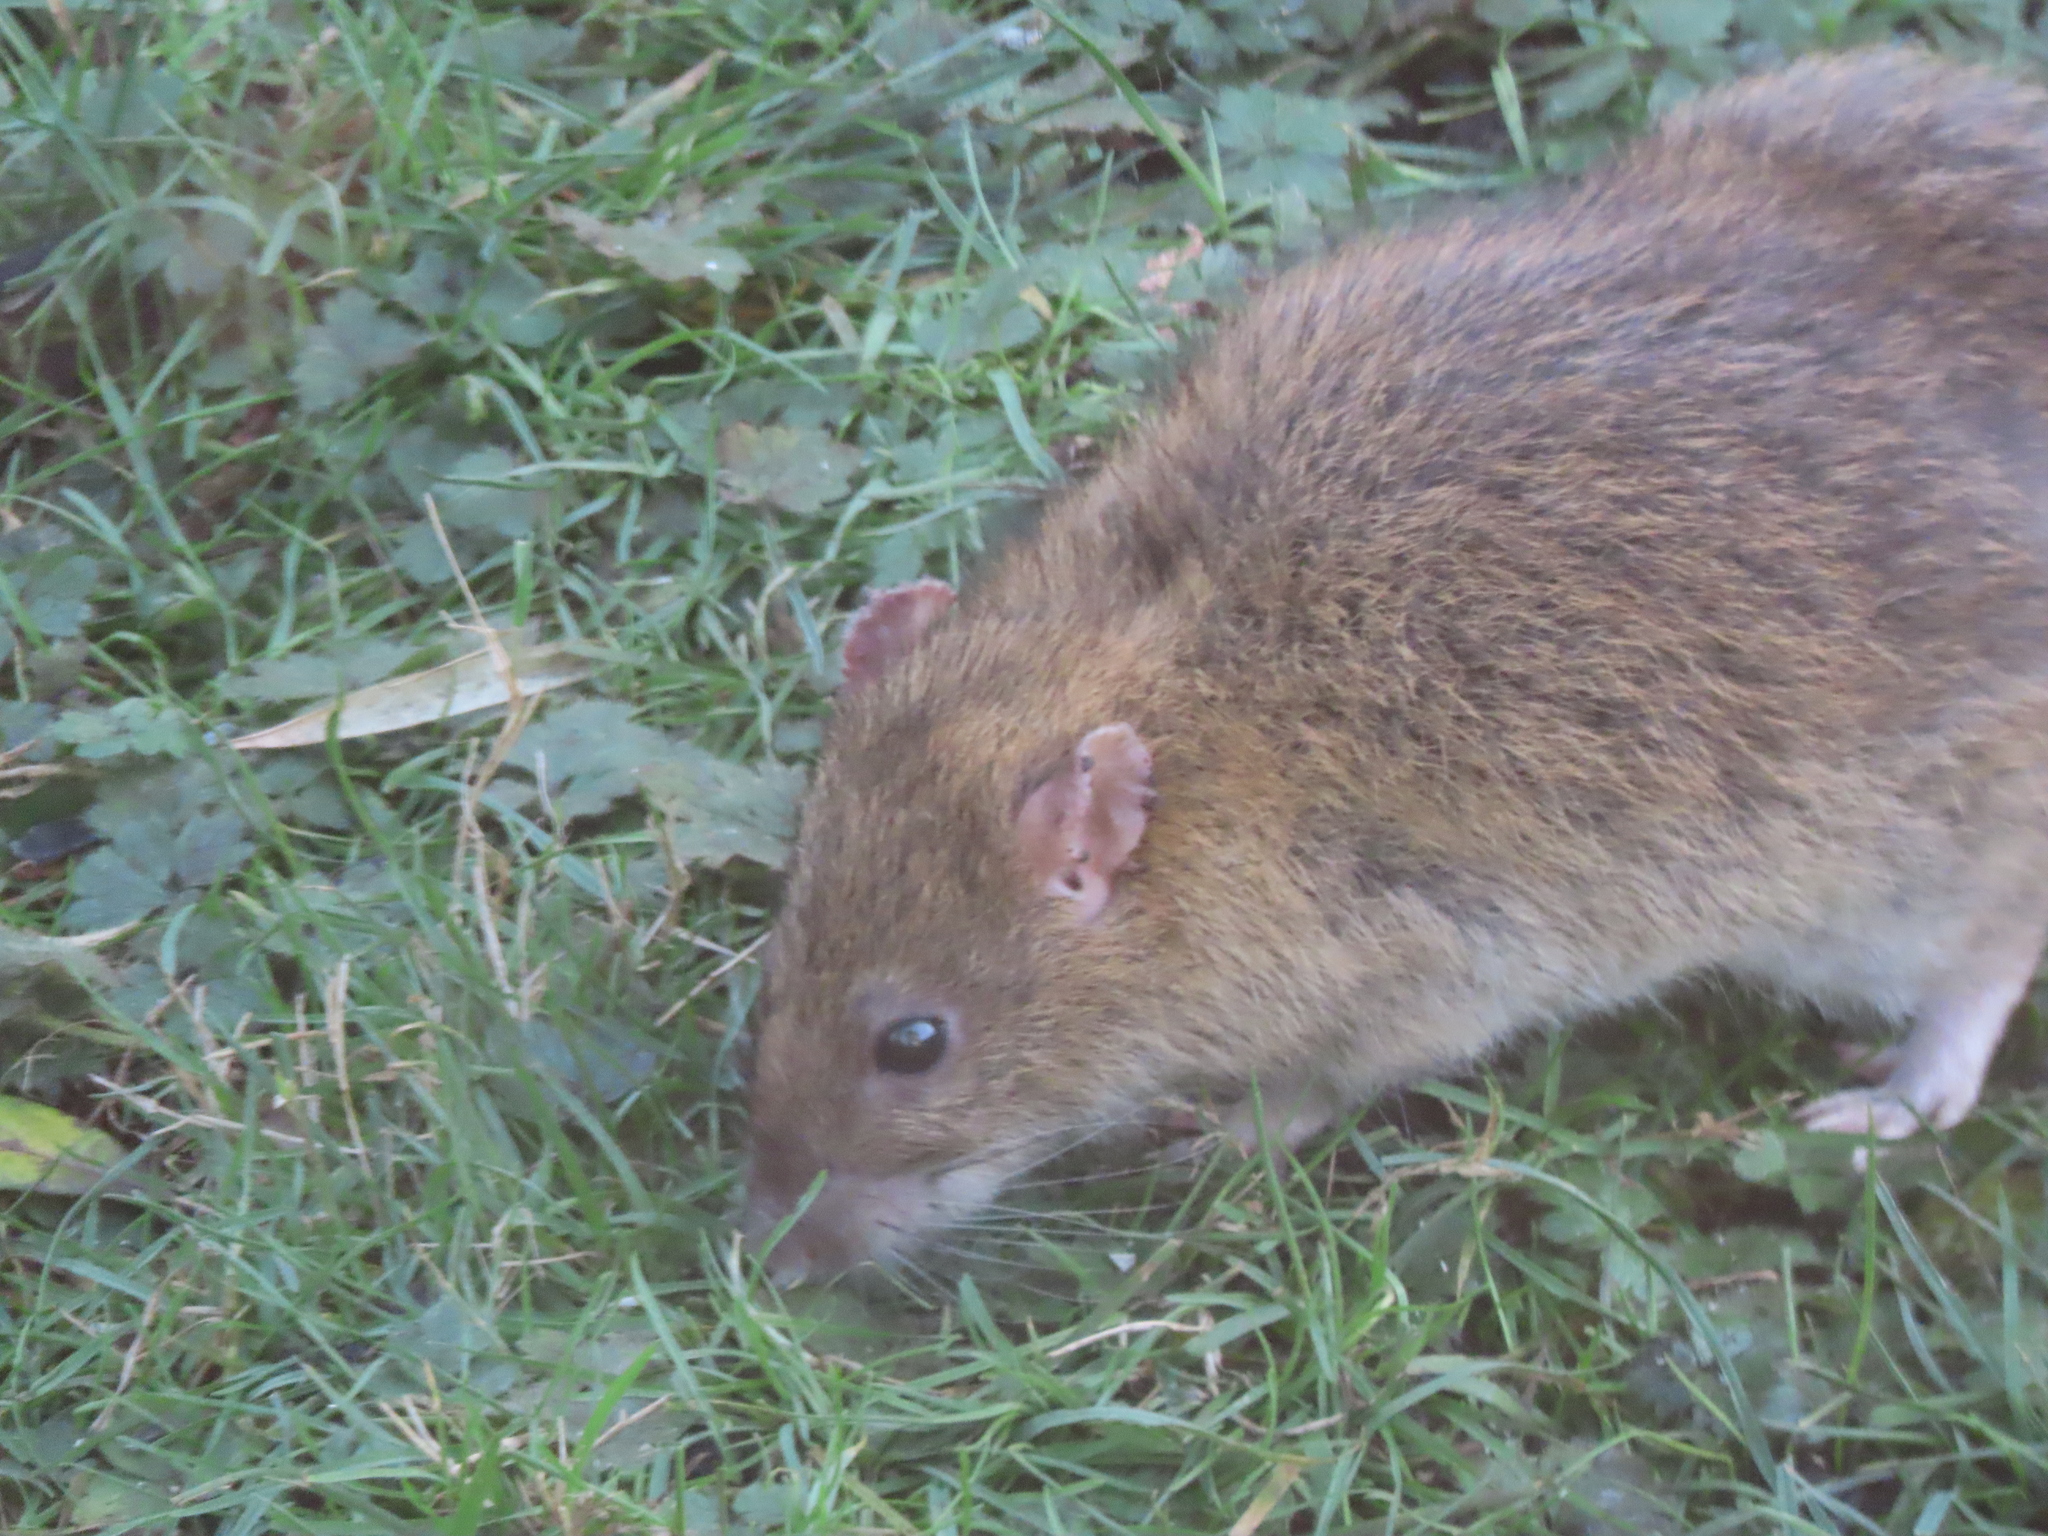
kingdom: Animalia
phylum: Chordata
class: Mammalia
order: Rodentia
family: Muridae
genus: Rattus
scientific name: Rattus norvegicus
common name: Brown rat
